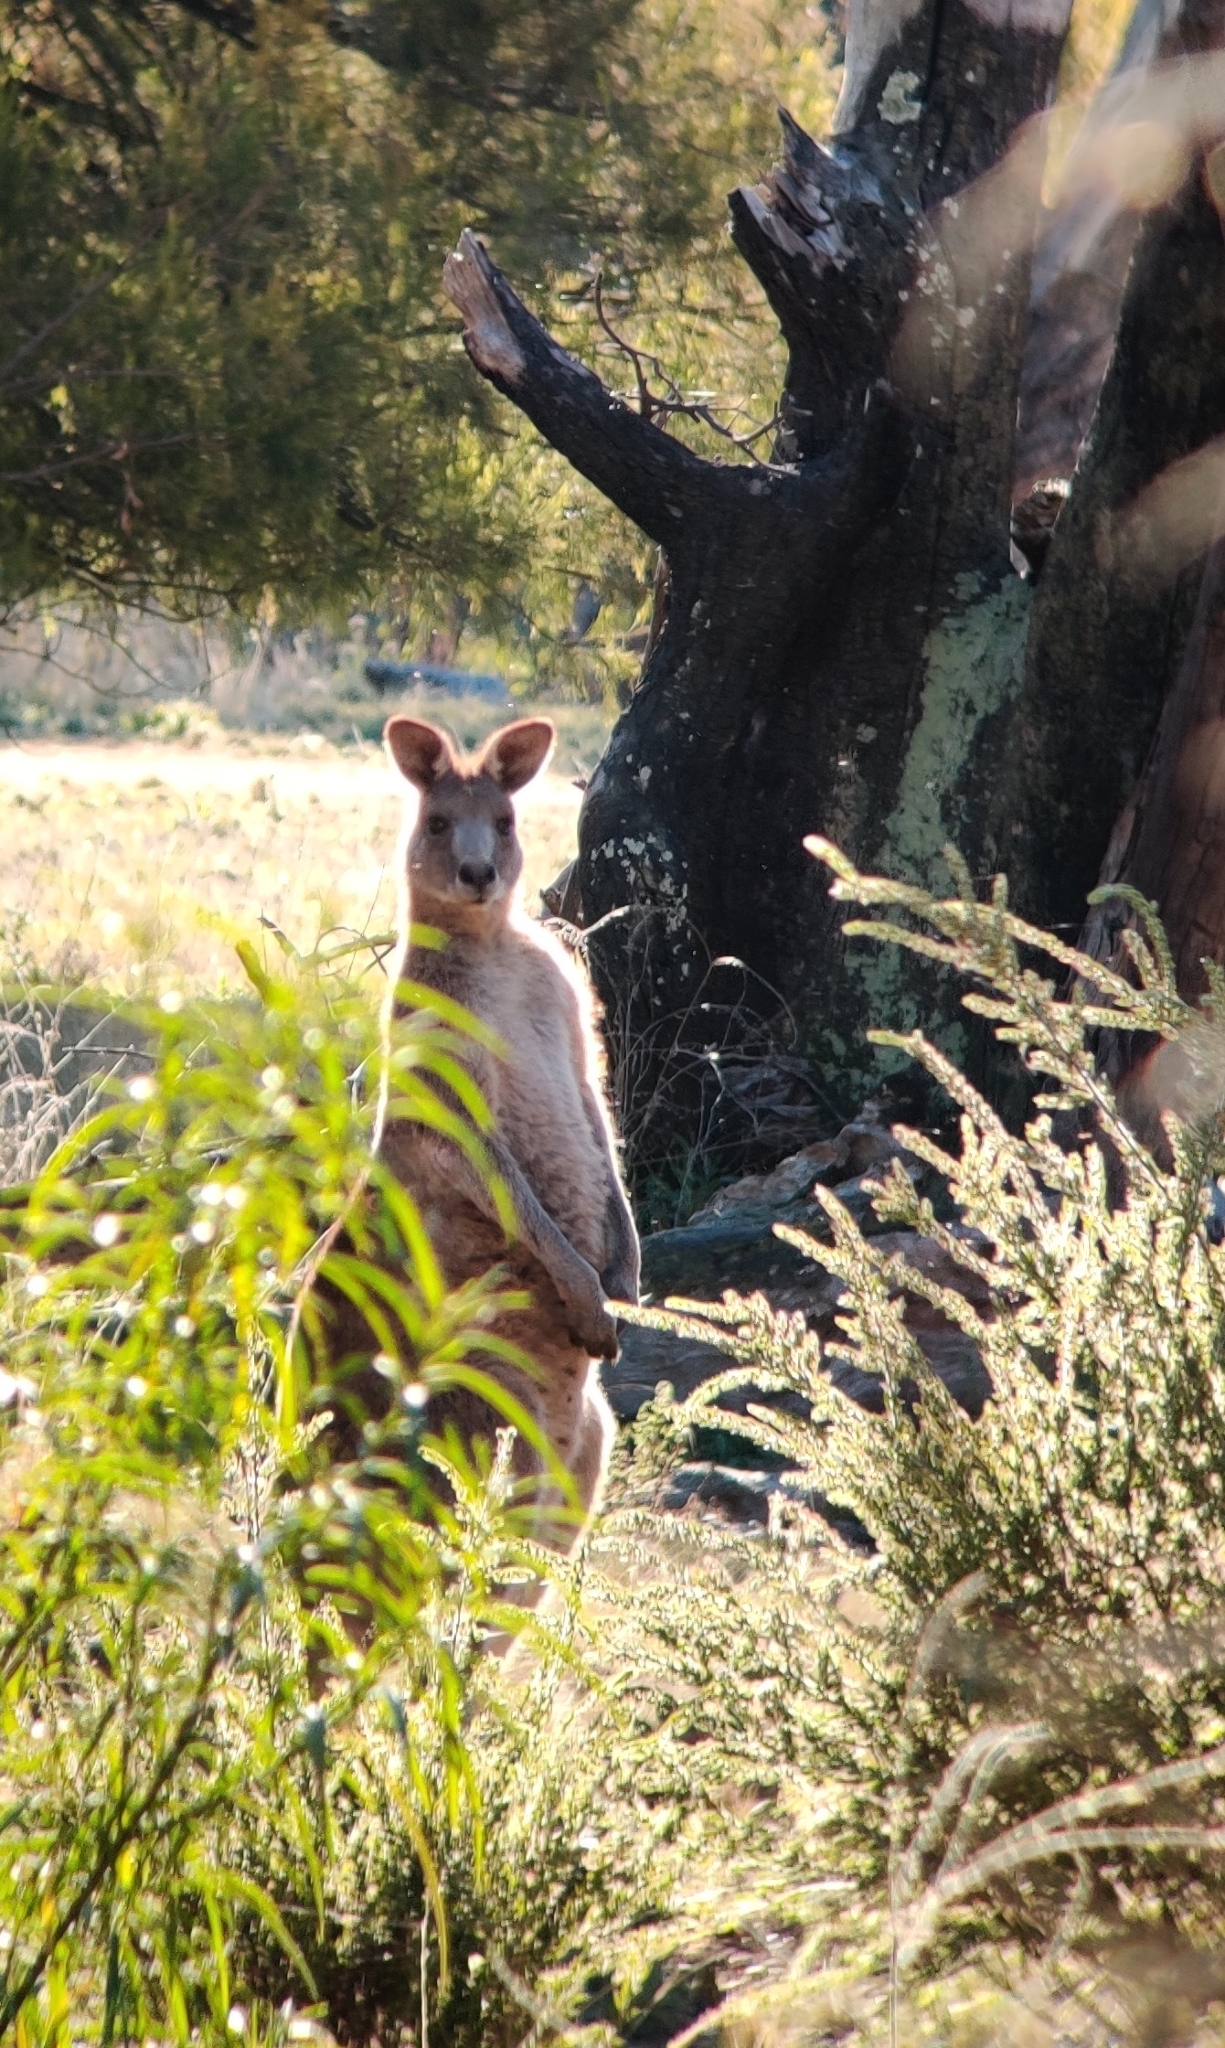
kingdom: Animalia
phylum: Chordata
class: Mammalia
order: Diprotodontia
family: Macropodidae
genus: Macropus
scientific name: Macropus giganteus
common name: Eastern grey kangaroo
